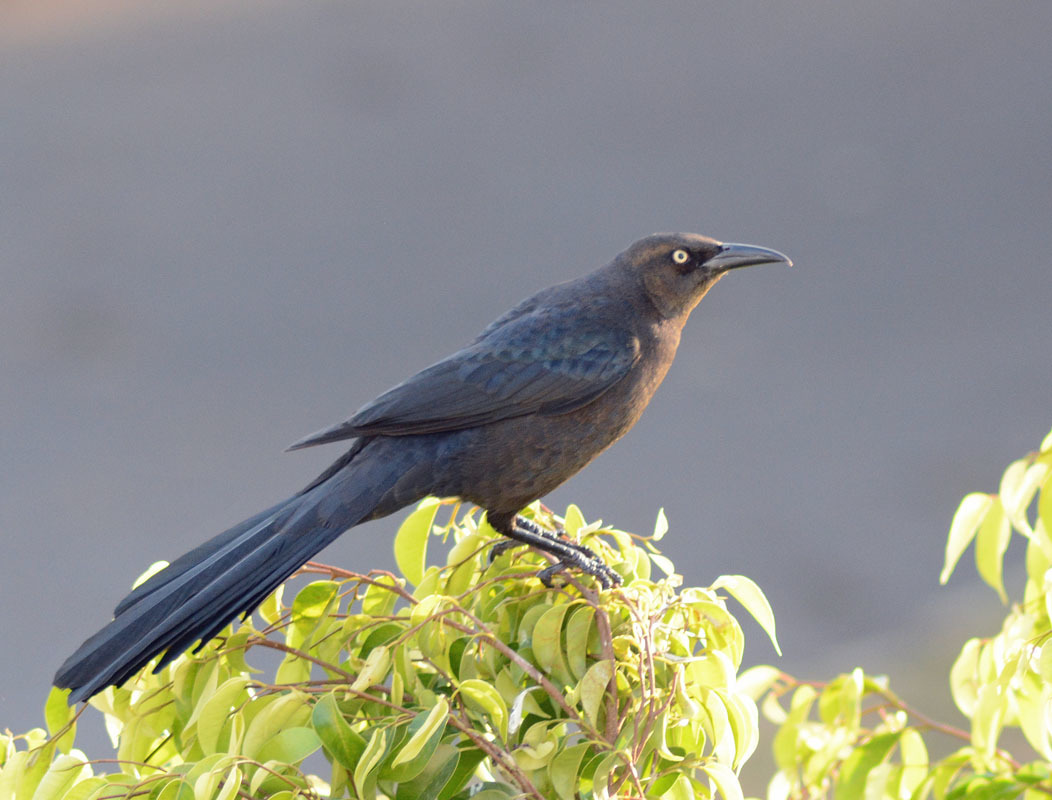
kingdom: Animalia
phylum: Chordata
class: Aves
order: Passeriformes
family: Icteridae
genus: Quiscalus
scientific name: Quiscalus mexicanus
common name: Great-tailed grackle
